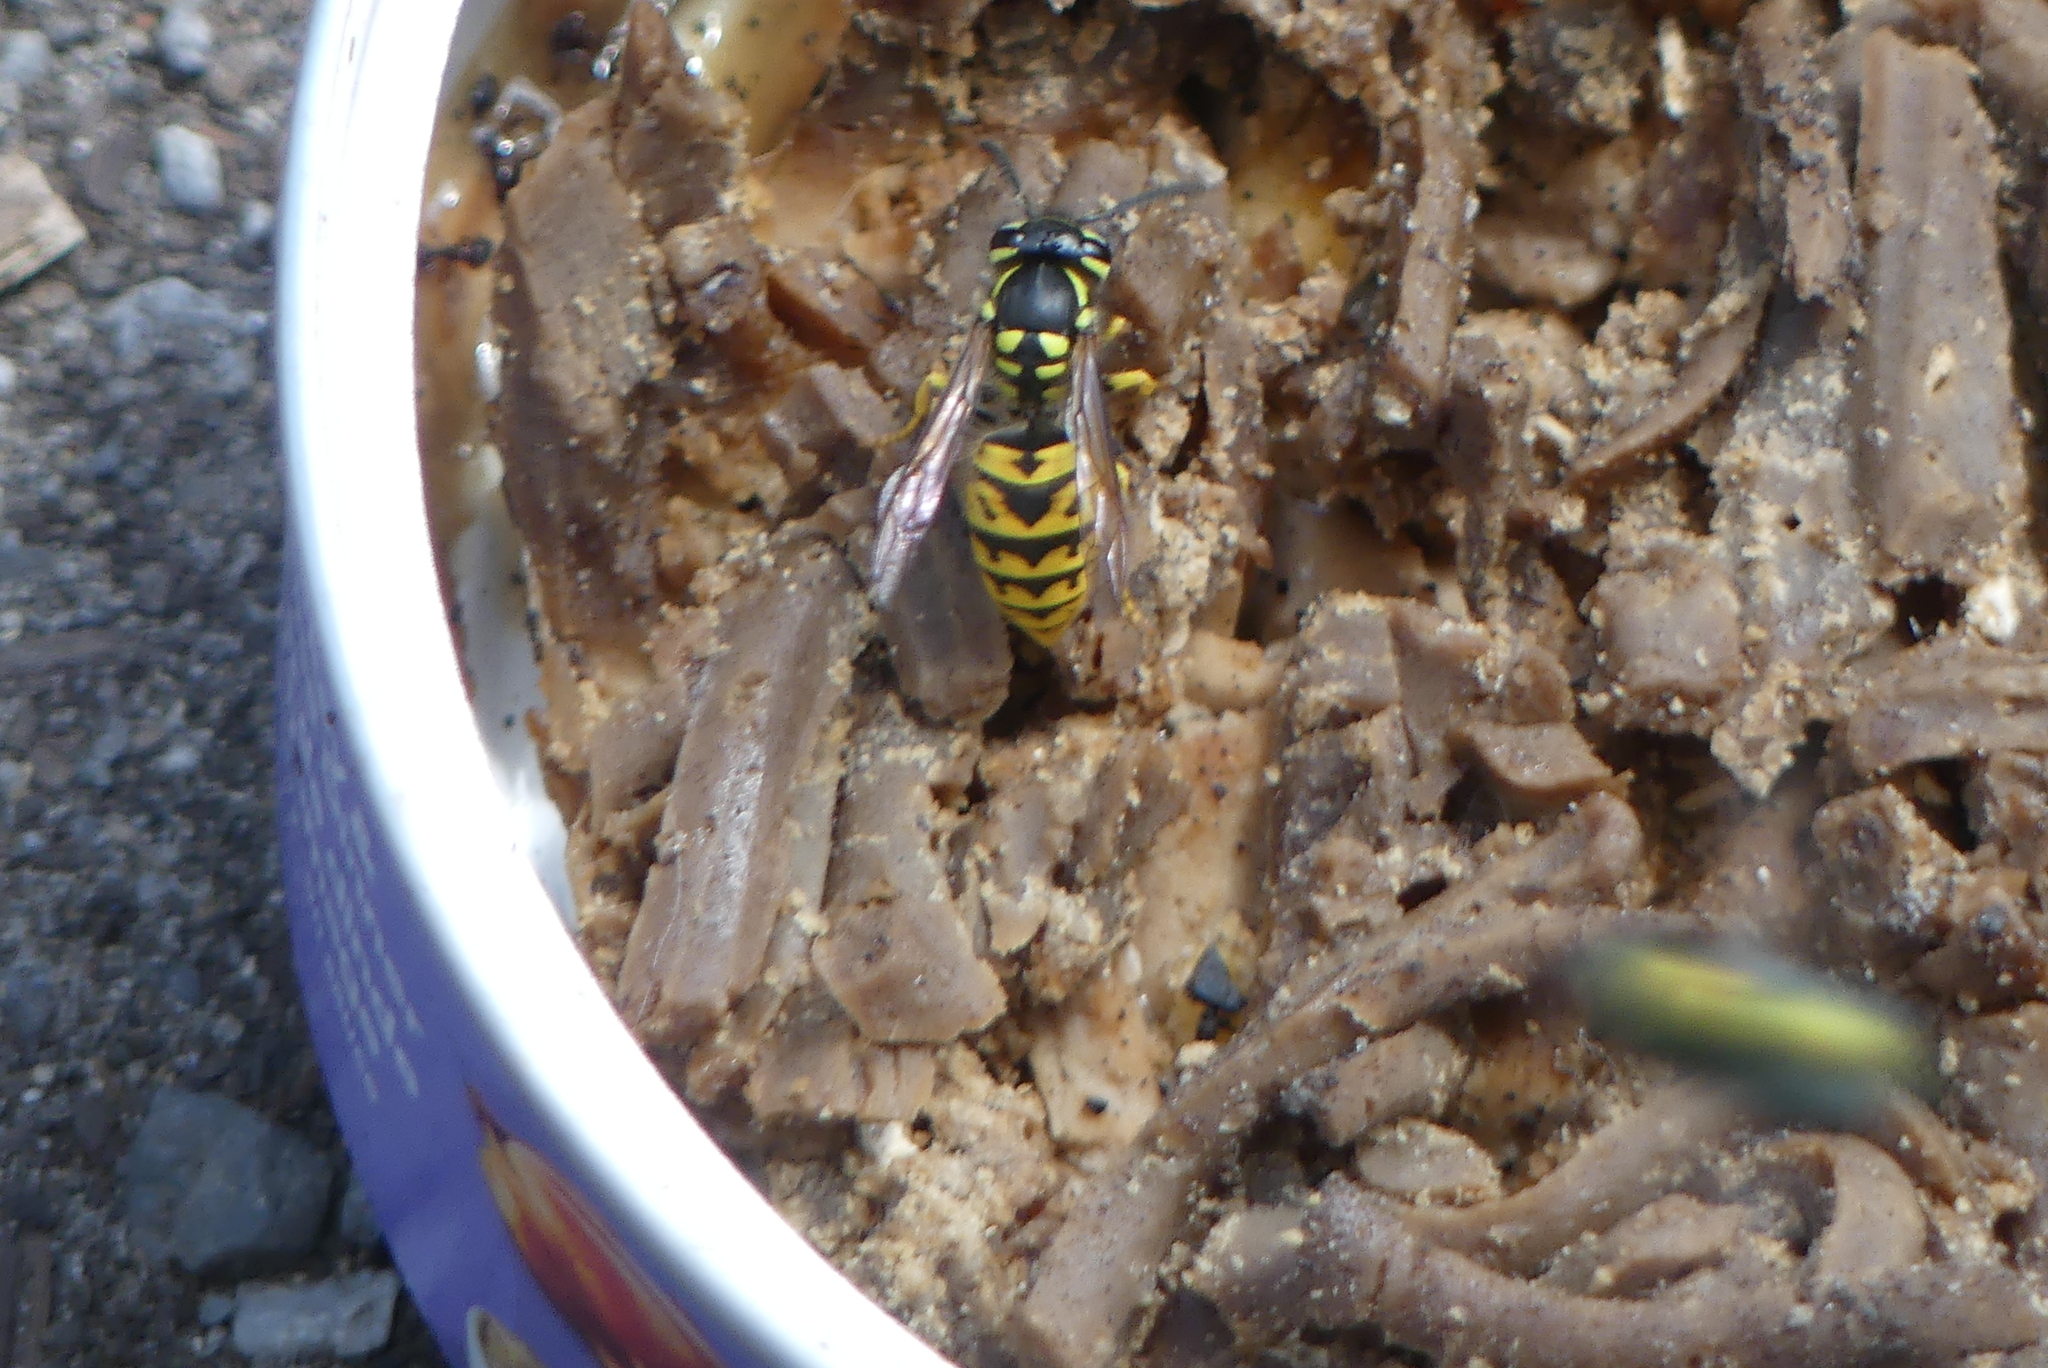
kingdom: Animalia
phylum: Arthropoda
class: Insecta
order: Hymenoptera
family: Vespidae
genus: Vespula
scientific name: Vespula germanica
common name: German wasp
